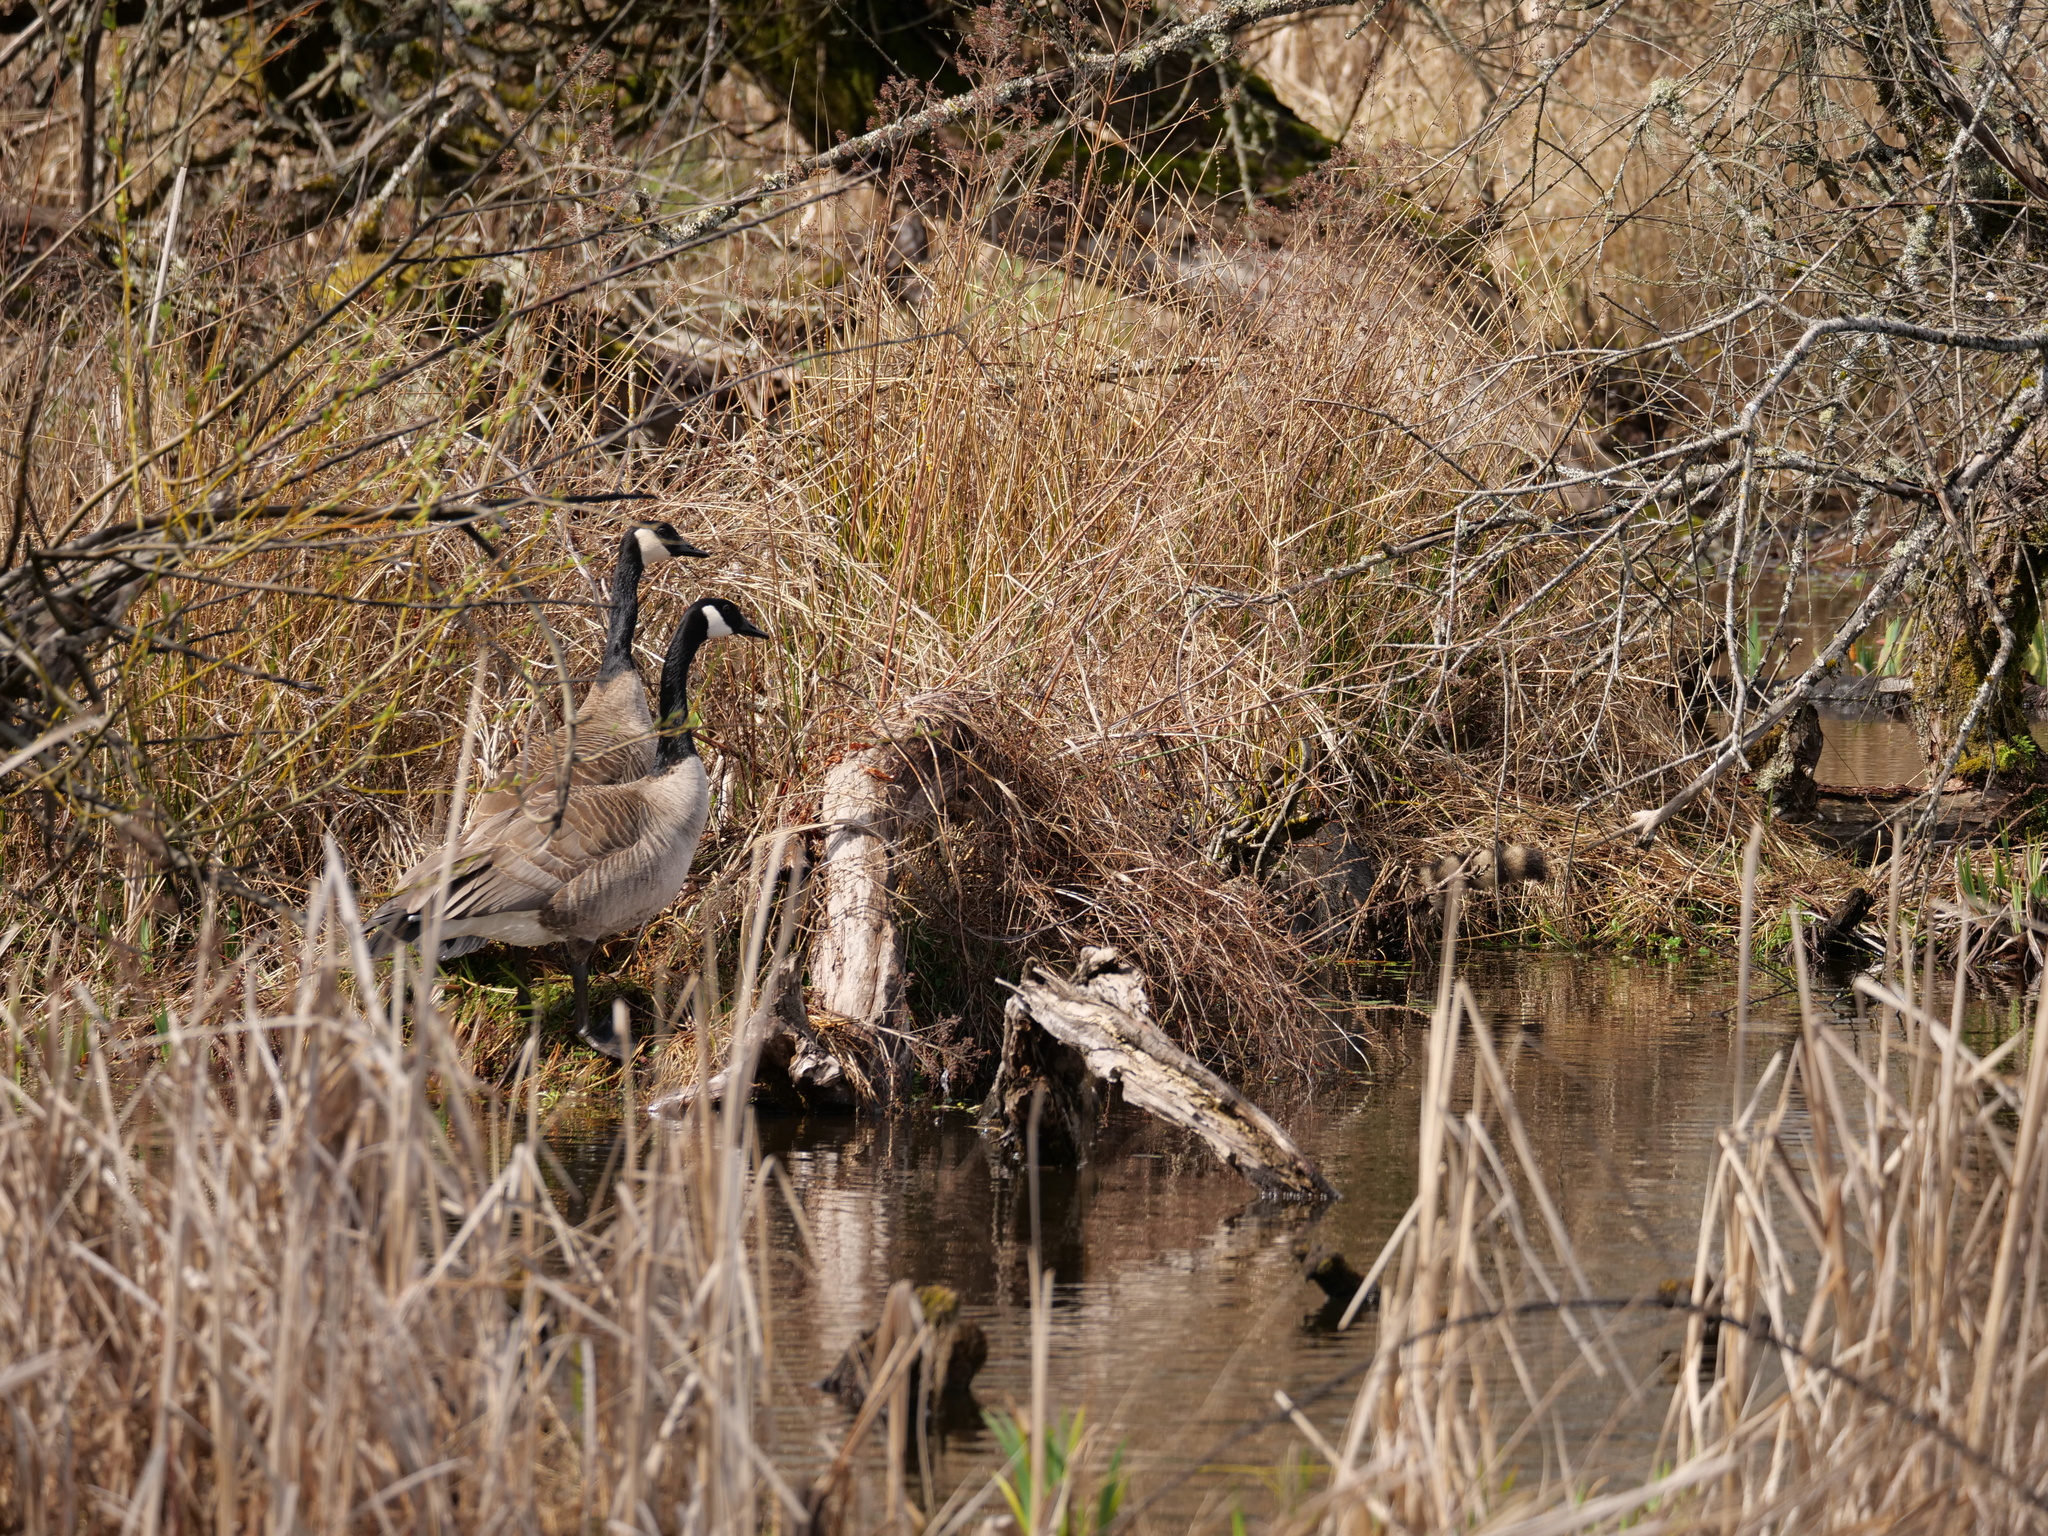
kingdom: Animalia
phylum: Chordata
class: Mammalia
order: Carnivora
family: Procyonidae
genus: Procyon
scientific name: Procyon lotor
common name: Raccoon
